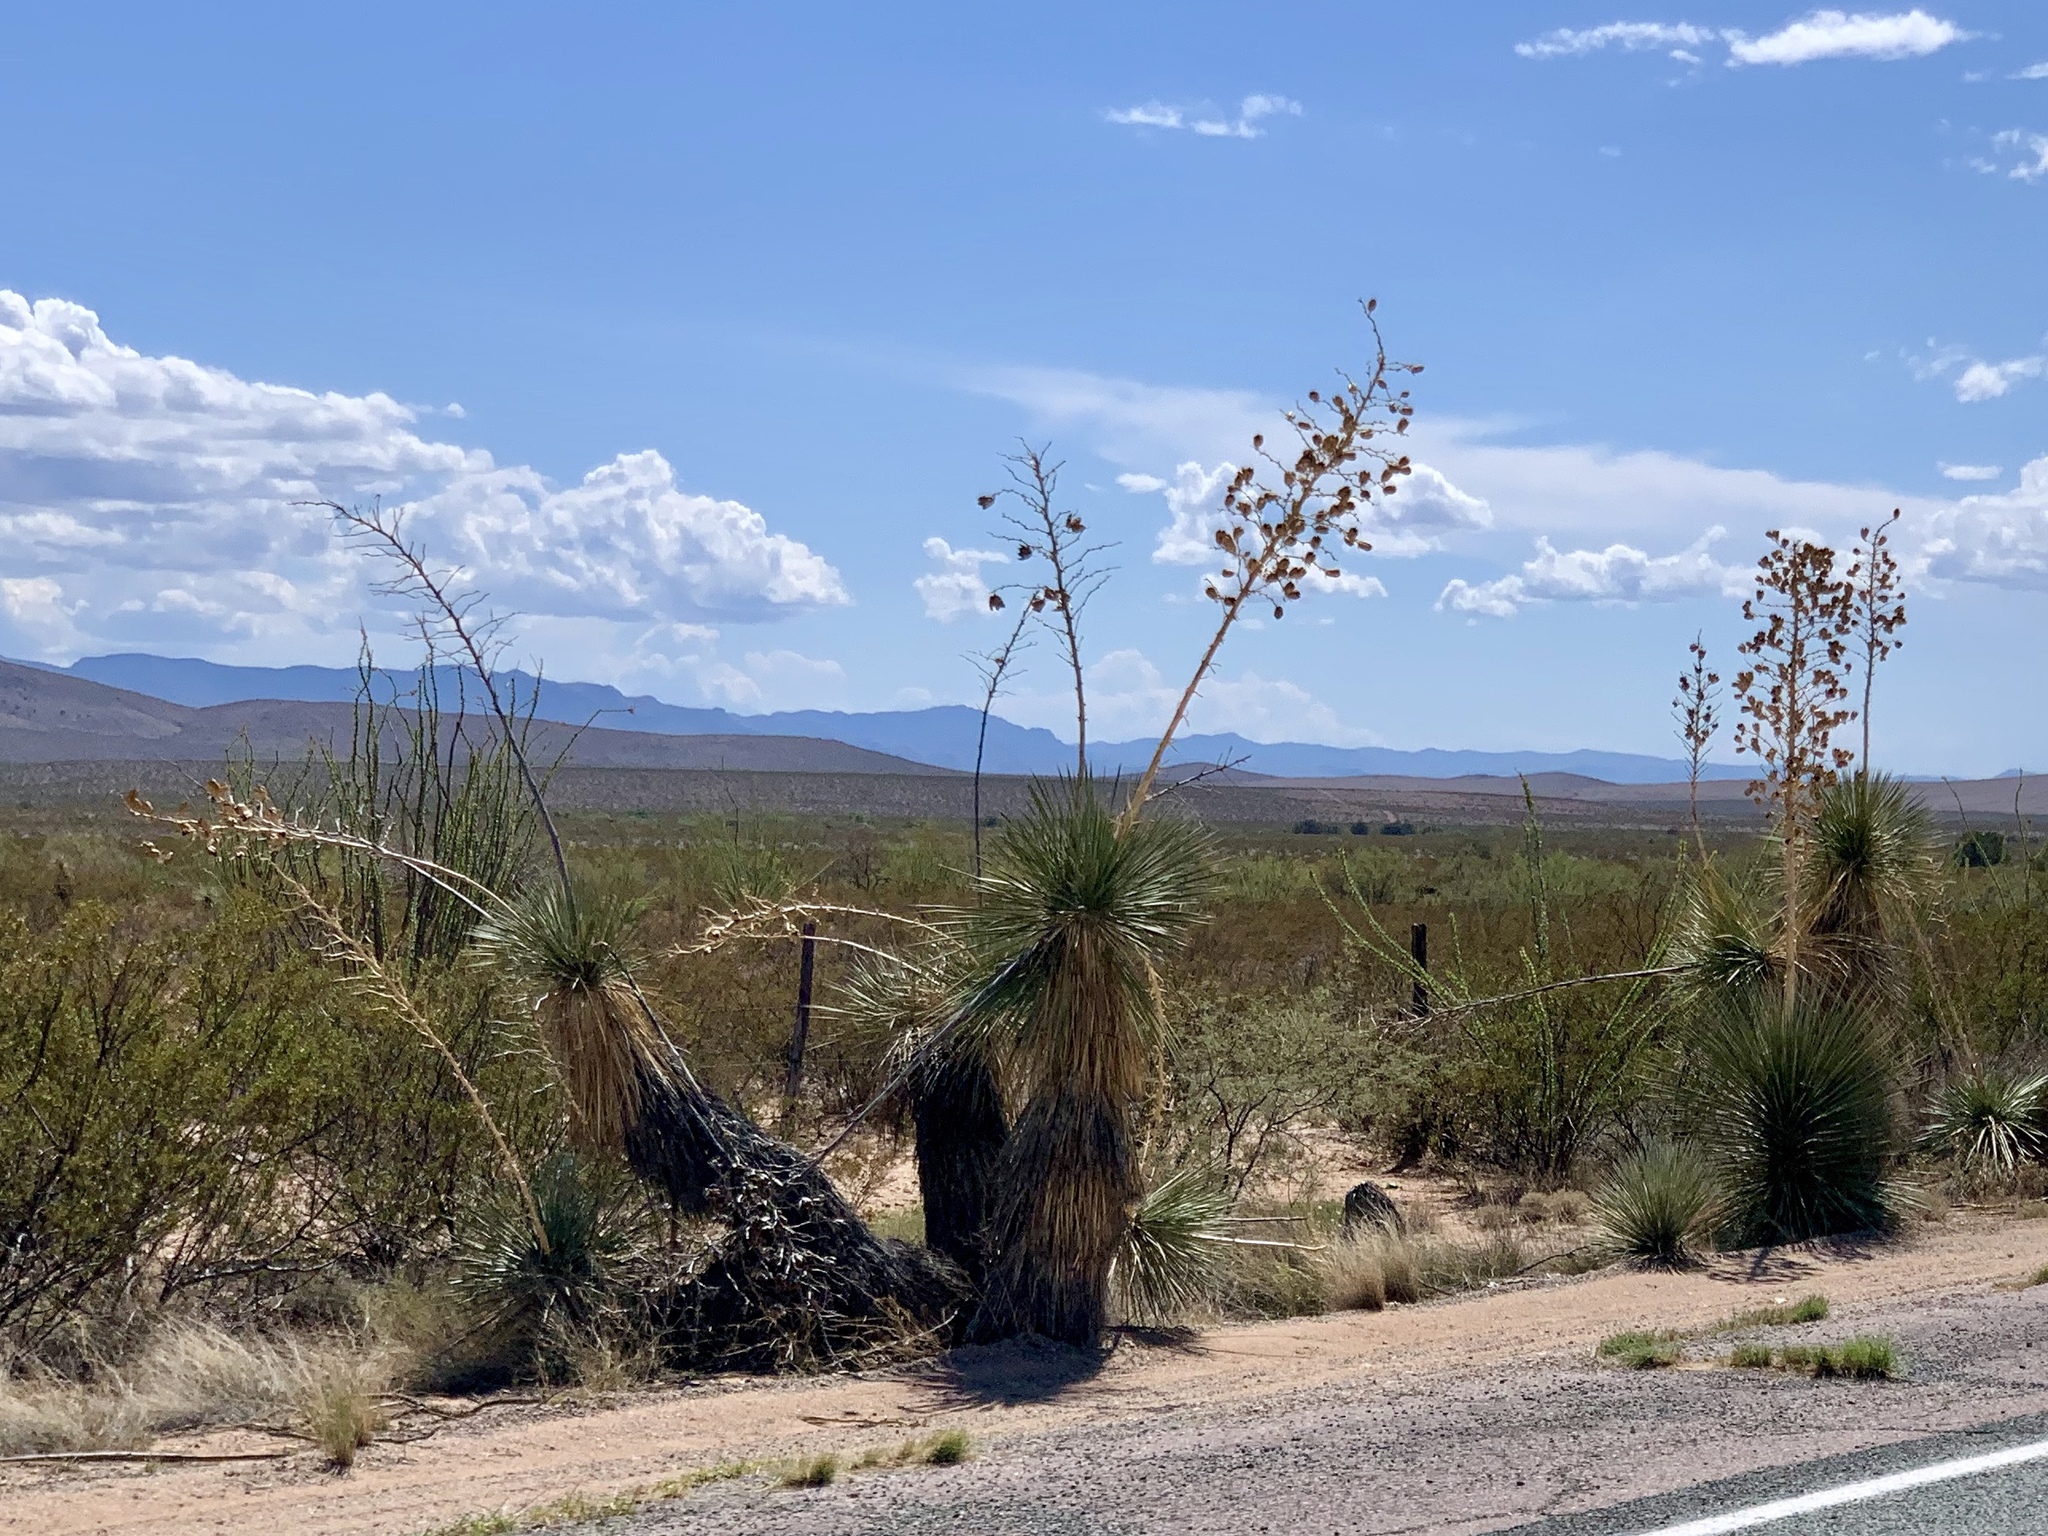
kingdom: Plantae
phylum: Tracheophyta
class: Liliopsida
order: Asparagales
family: Asparagaceae
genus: Yucca
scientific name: Yucca elata
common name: Palmella
